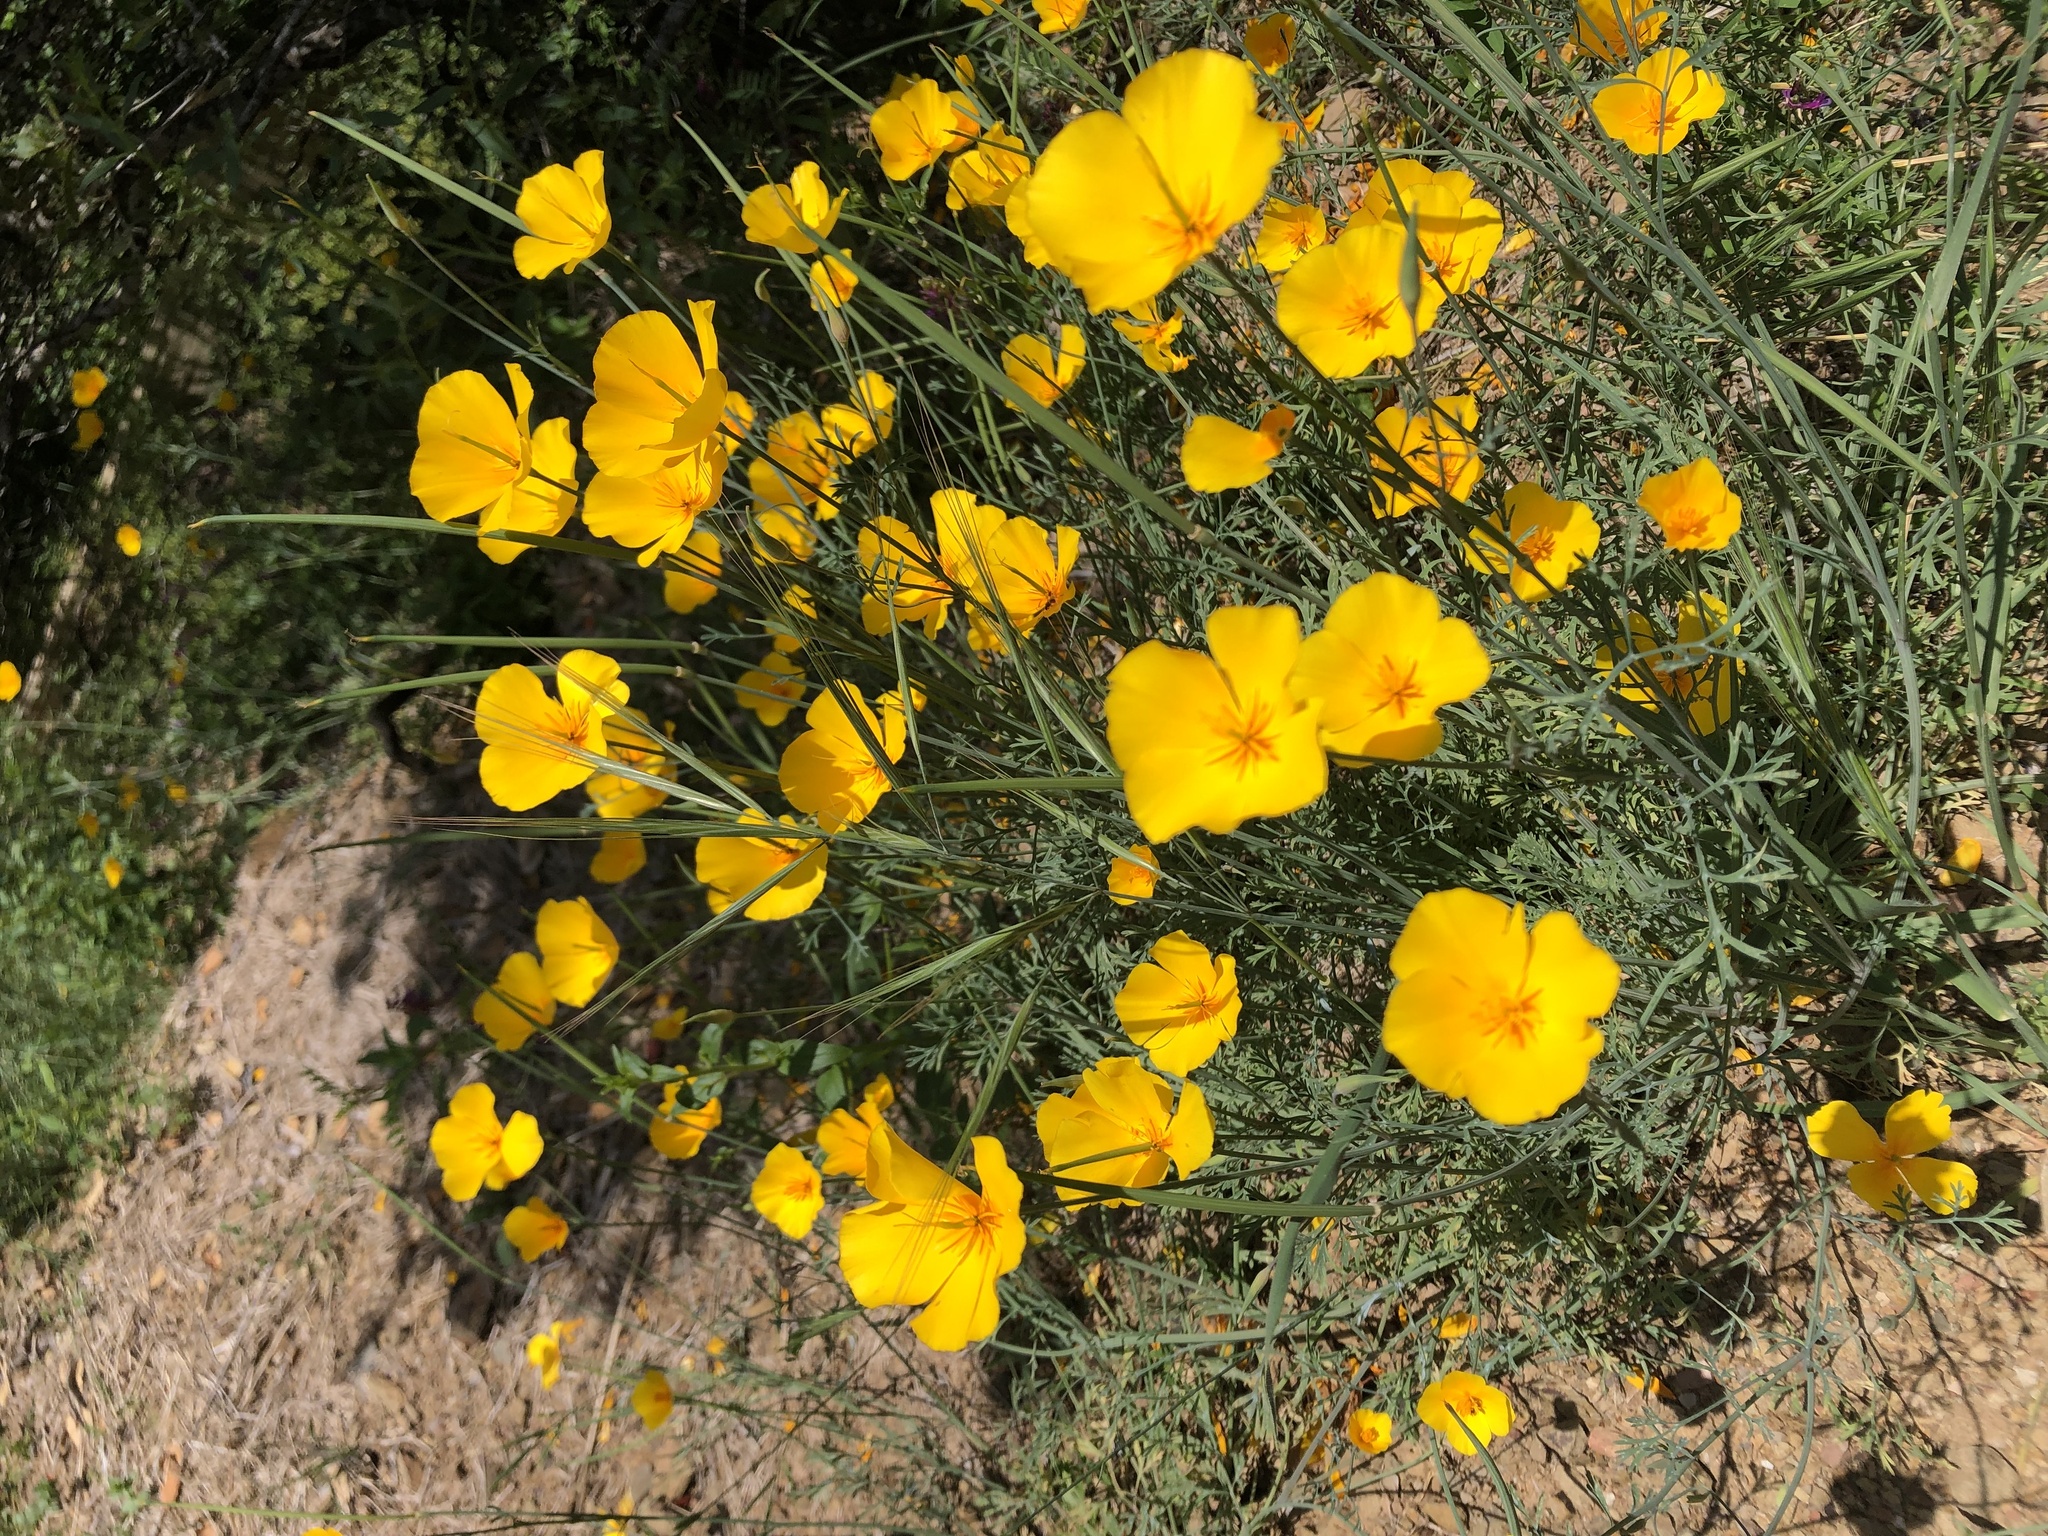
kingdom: Plantae
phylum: Tracheophyta
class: Magnoliopsida
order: Ranunculales
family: Papaveraceae
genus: Eschscholzia
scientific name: Eschscholzia caespitosa
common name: Tufted california-poppy
